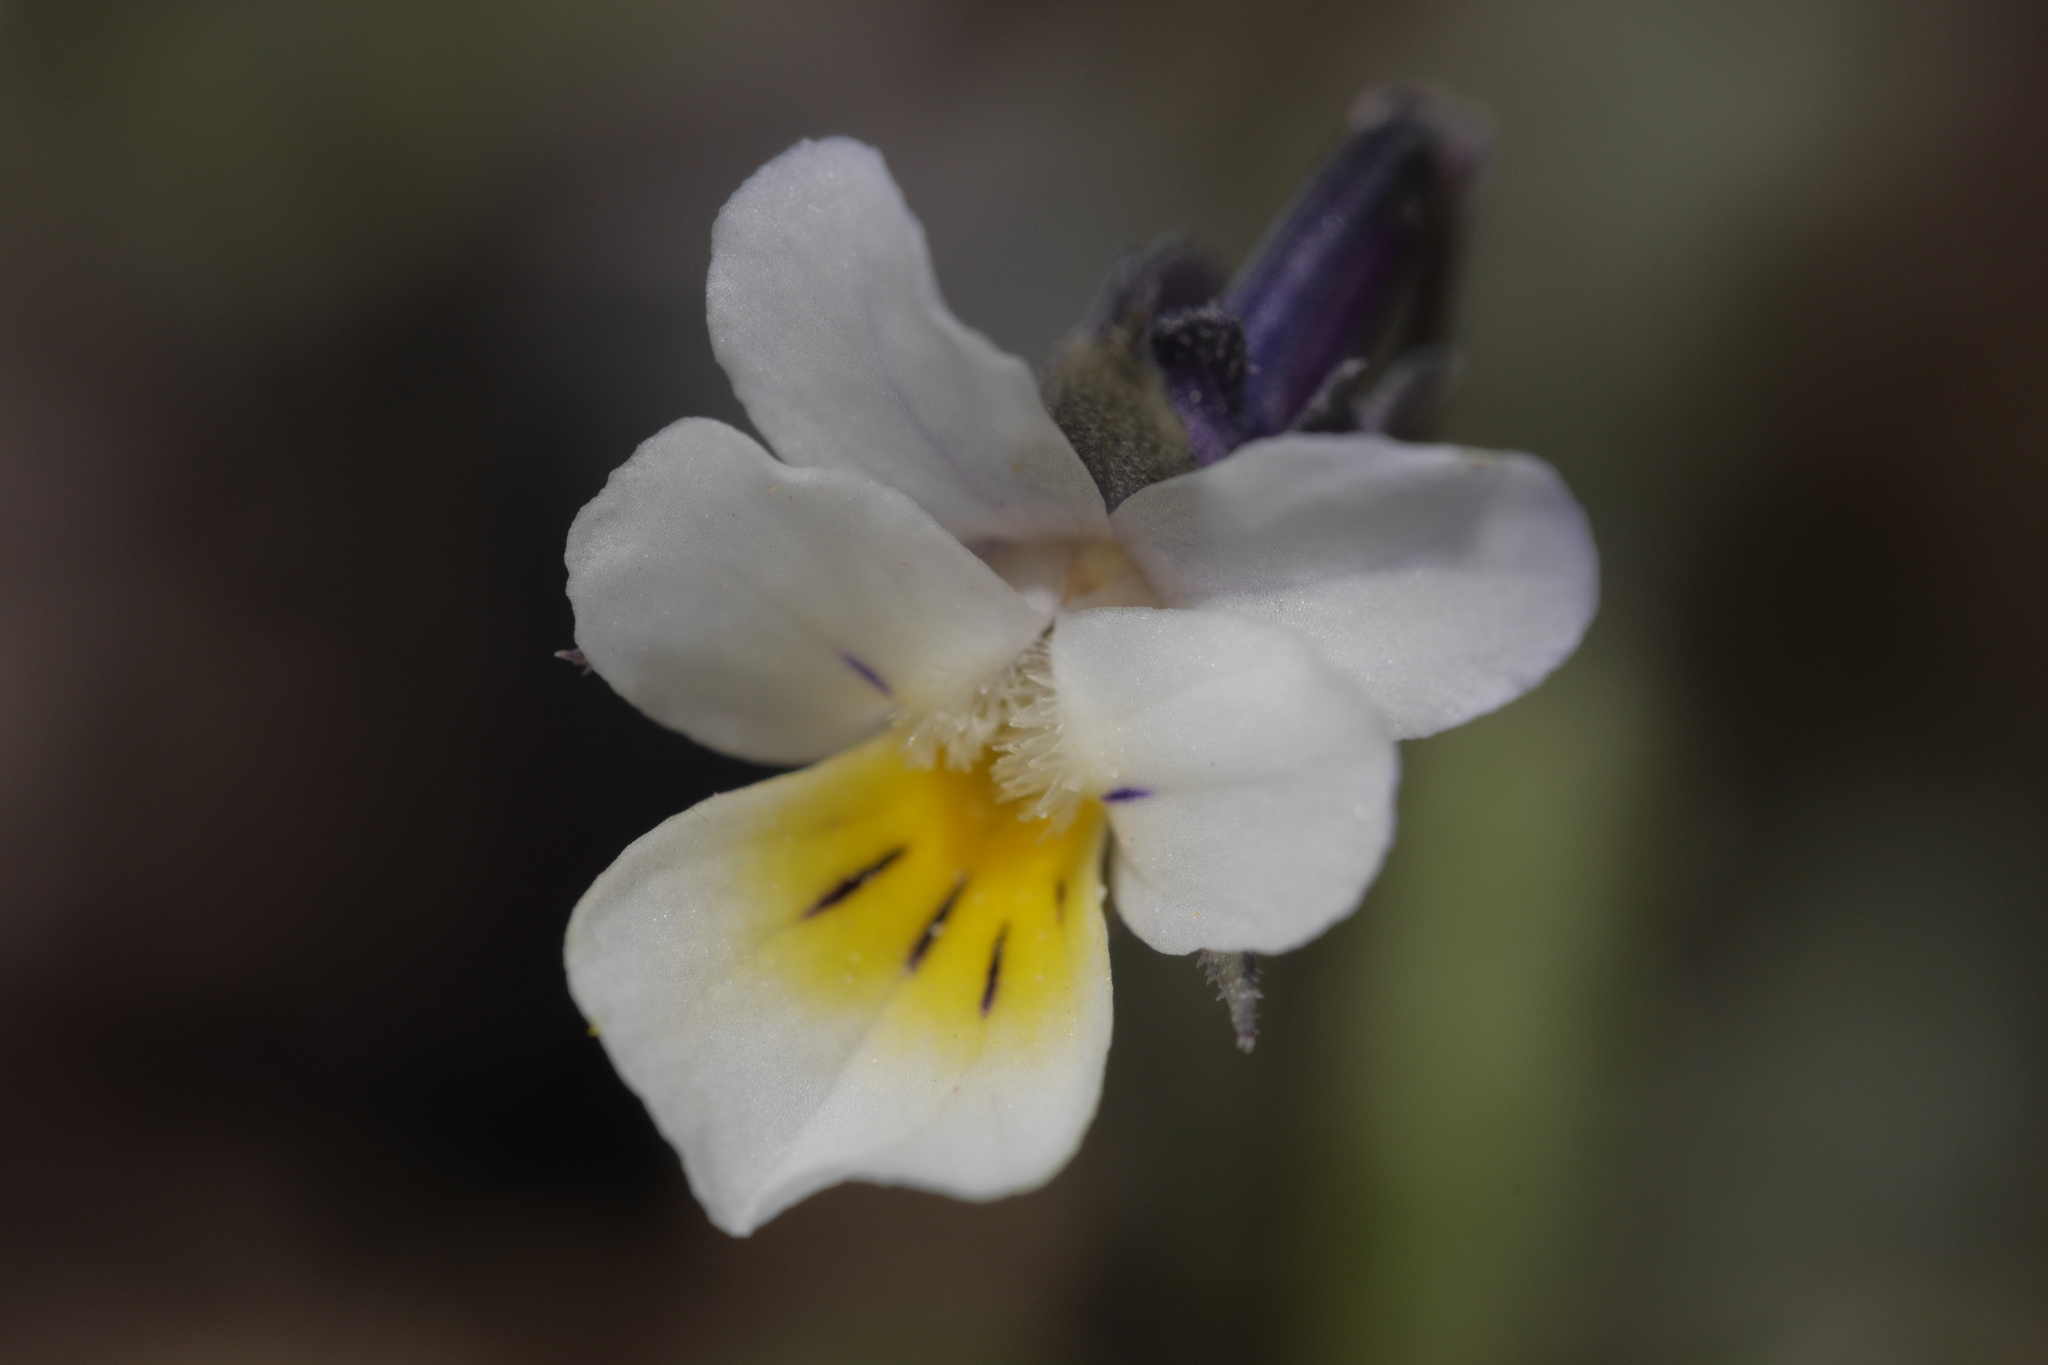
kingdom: Plantae
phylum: Tracheophyta
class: Magnoliopsida
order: Malpighiales
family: Violaceae
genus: Viola
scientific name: Viola arvensis
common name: Field pansy
